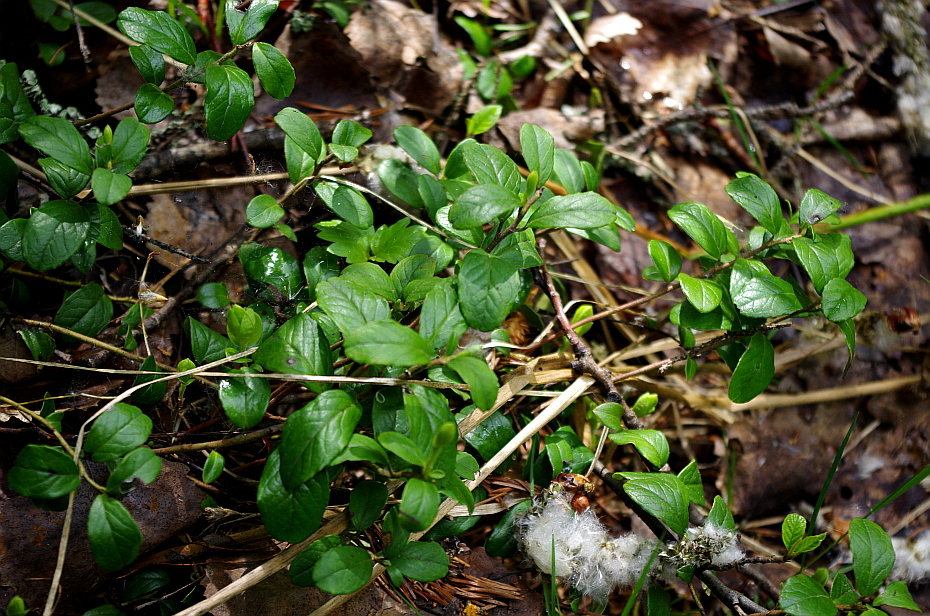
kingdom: Plantae
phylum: Tracheophyta
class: Magnoliopsida
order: Ericales
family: Ericaceae
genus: Vaccinium
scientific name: Vaccinium vitis-idaea
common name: Cowberry
